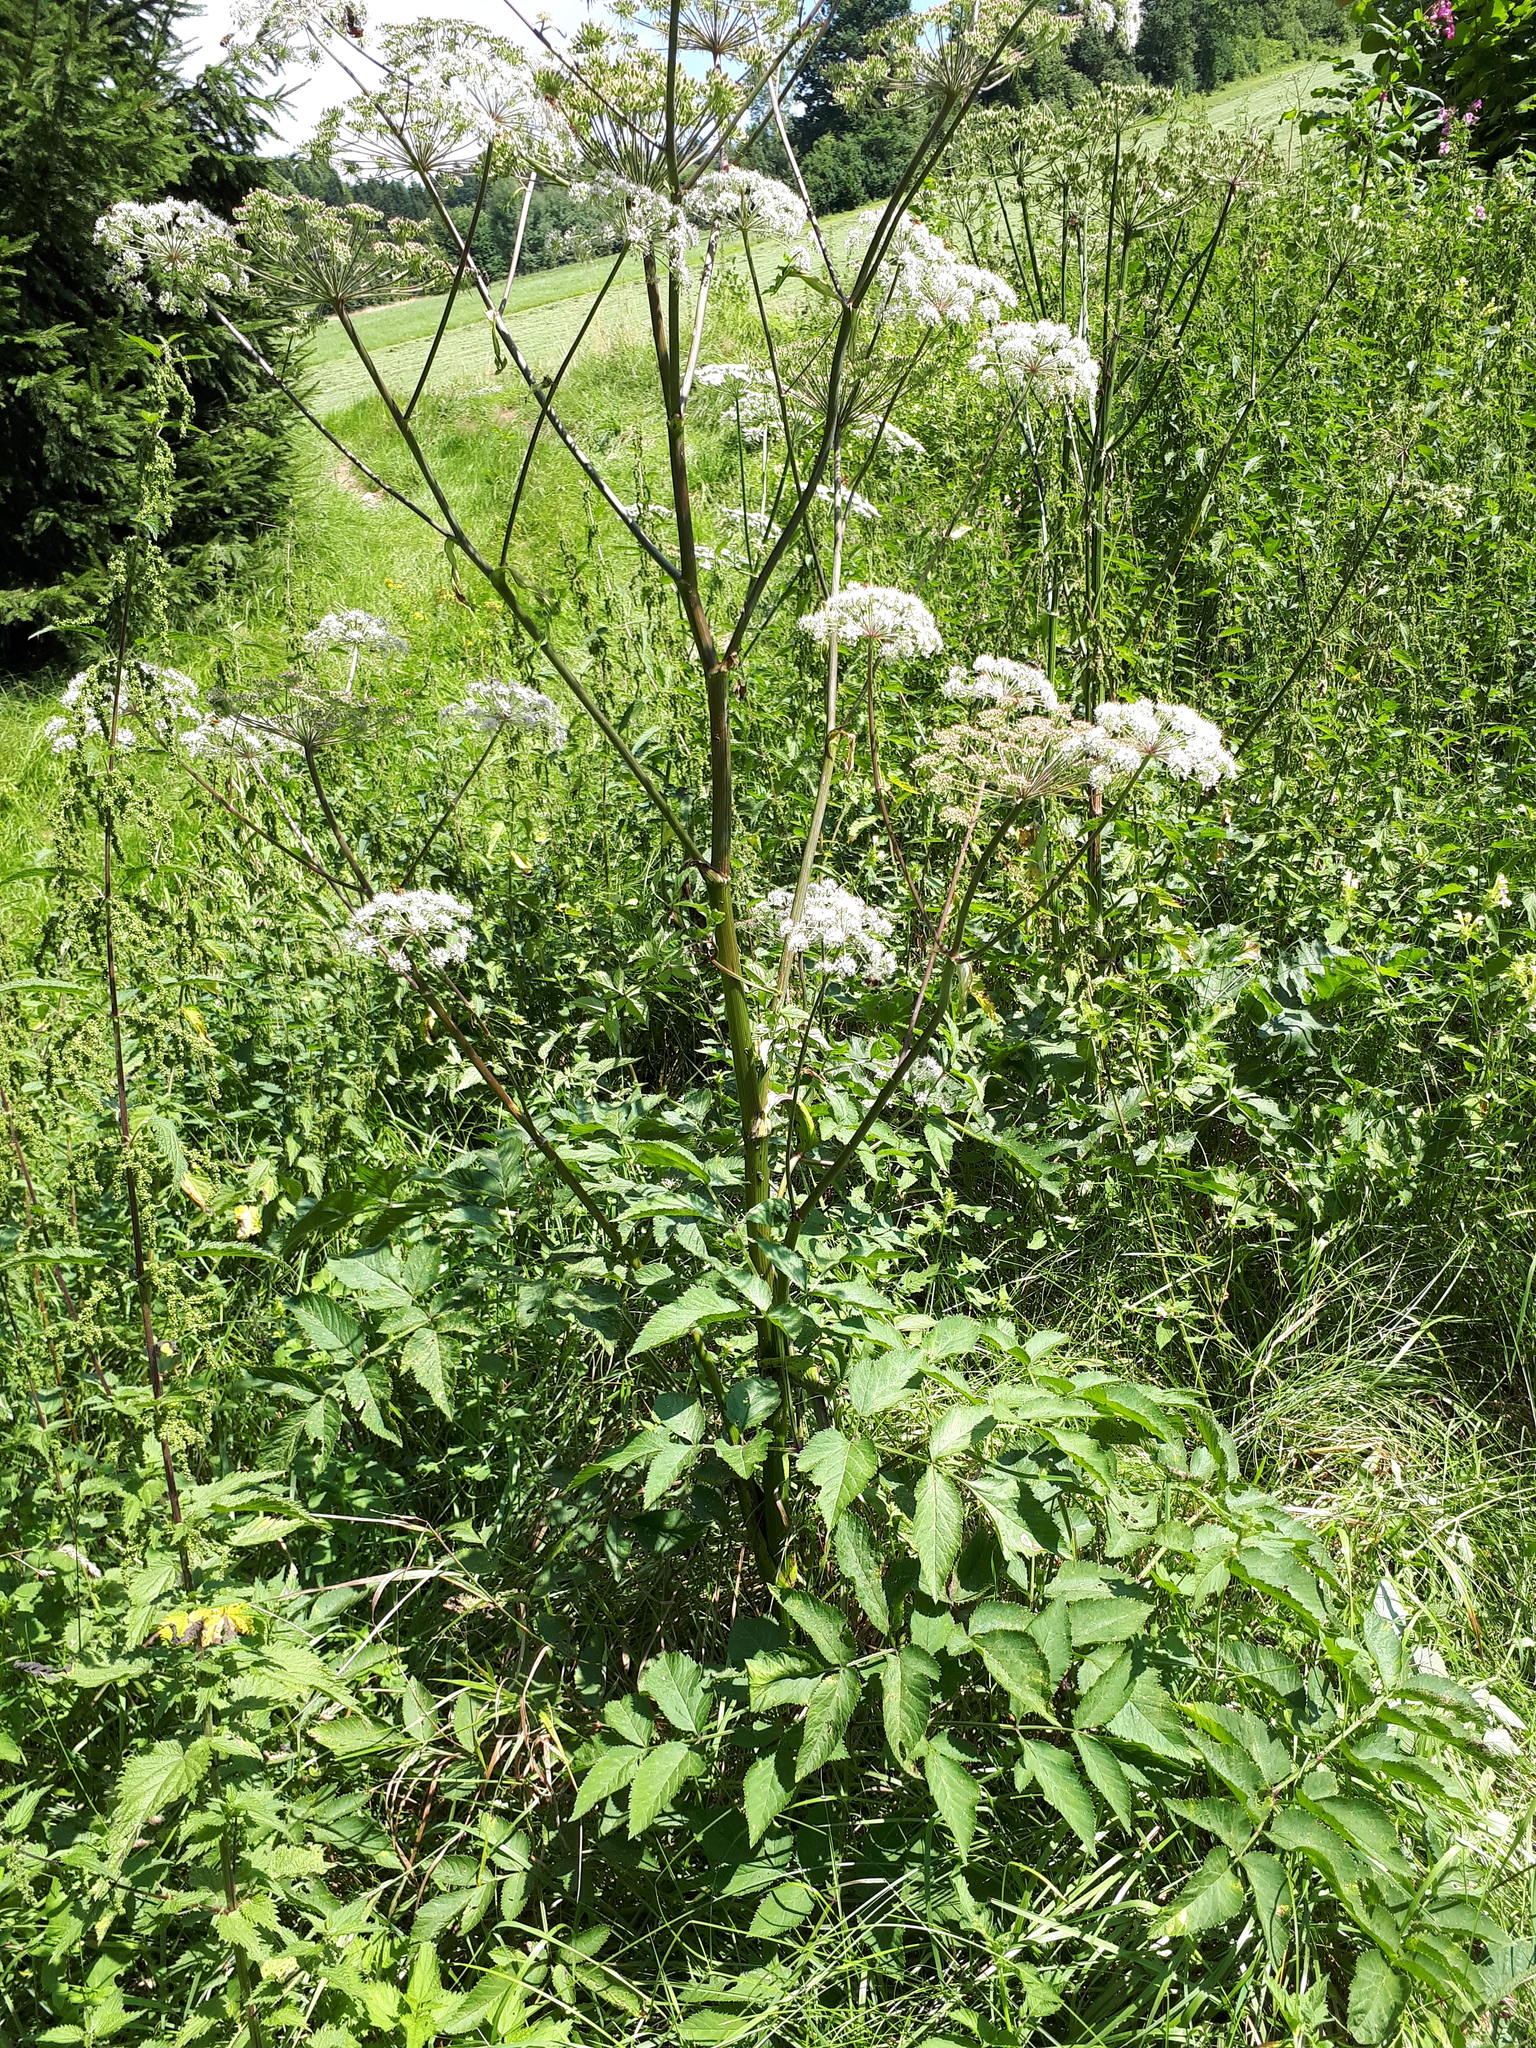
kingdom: Plantae
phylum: Tracheophyta
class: Magnoliopsida
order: Apiales
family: Apiaceae
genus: Angelica
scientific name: Angelica sylvestris
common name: Wild angelica
